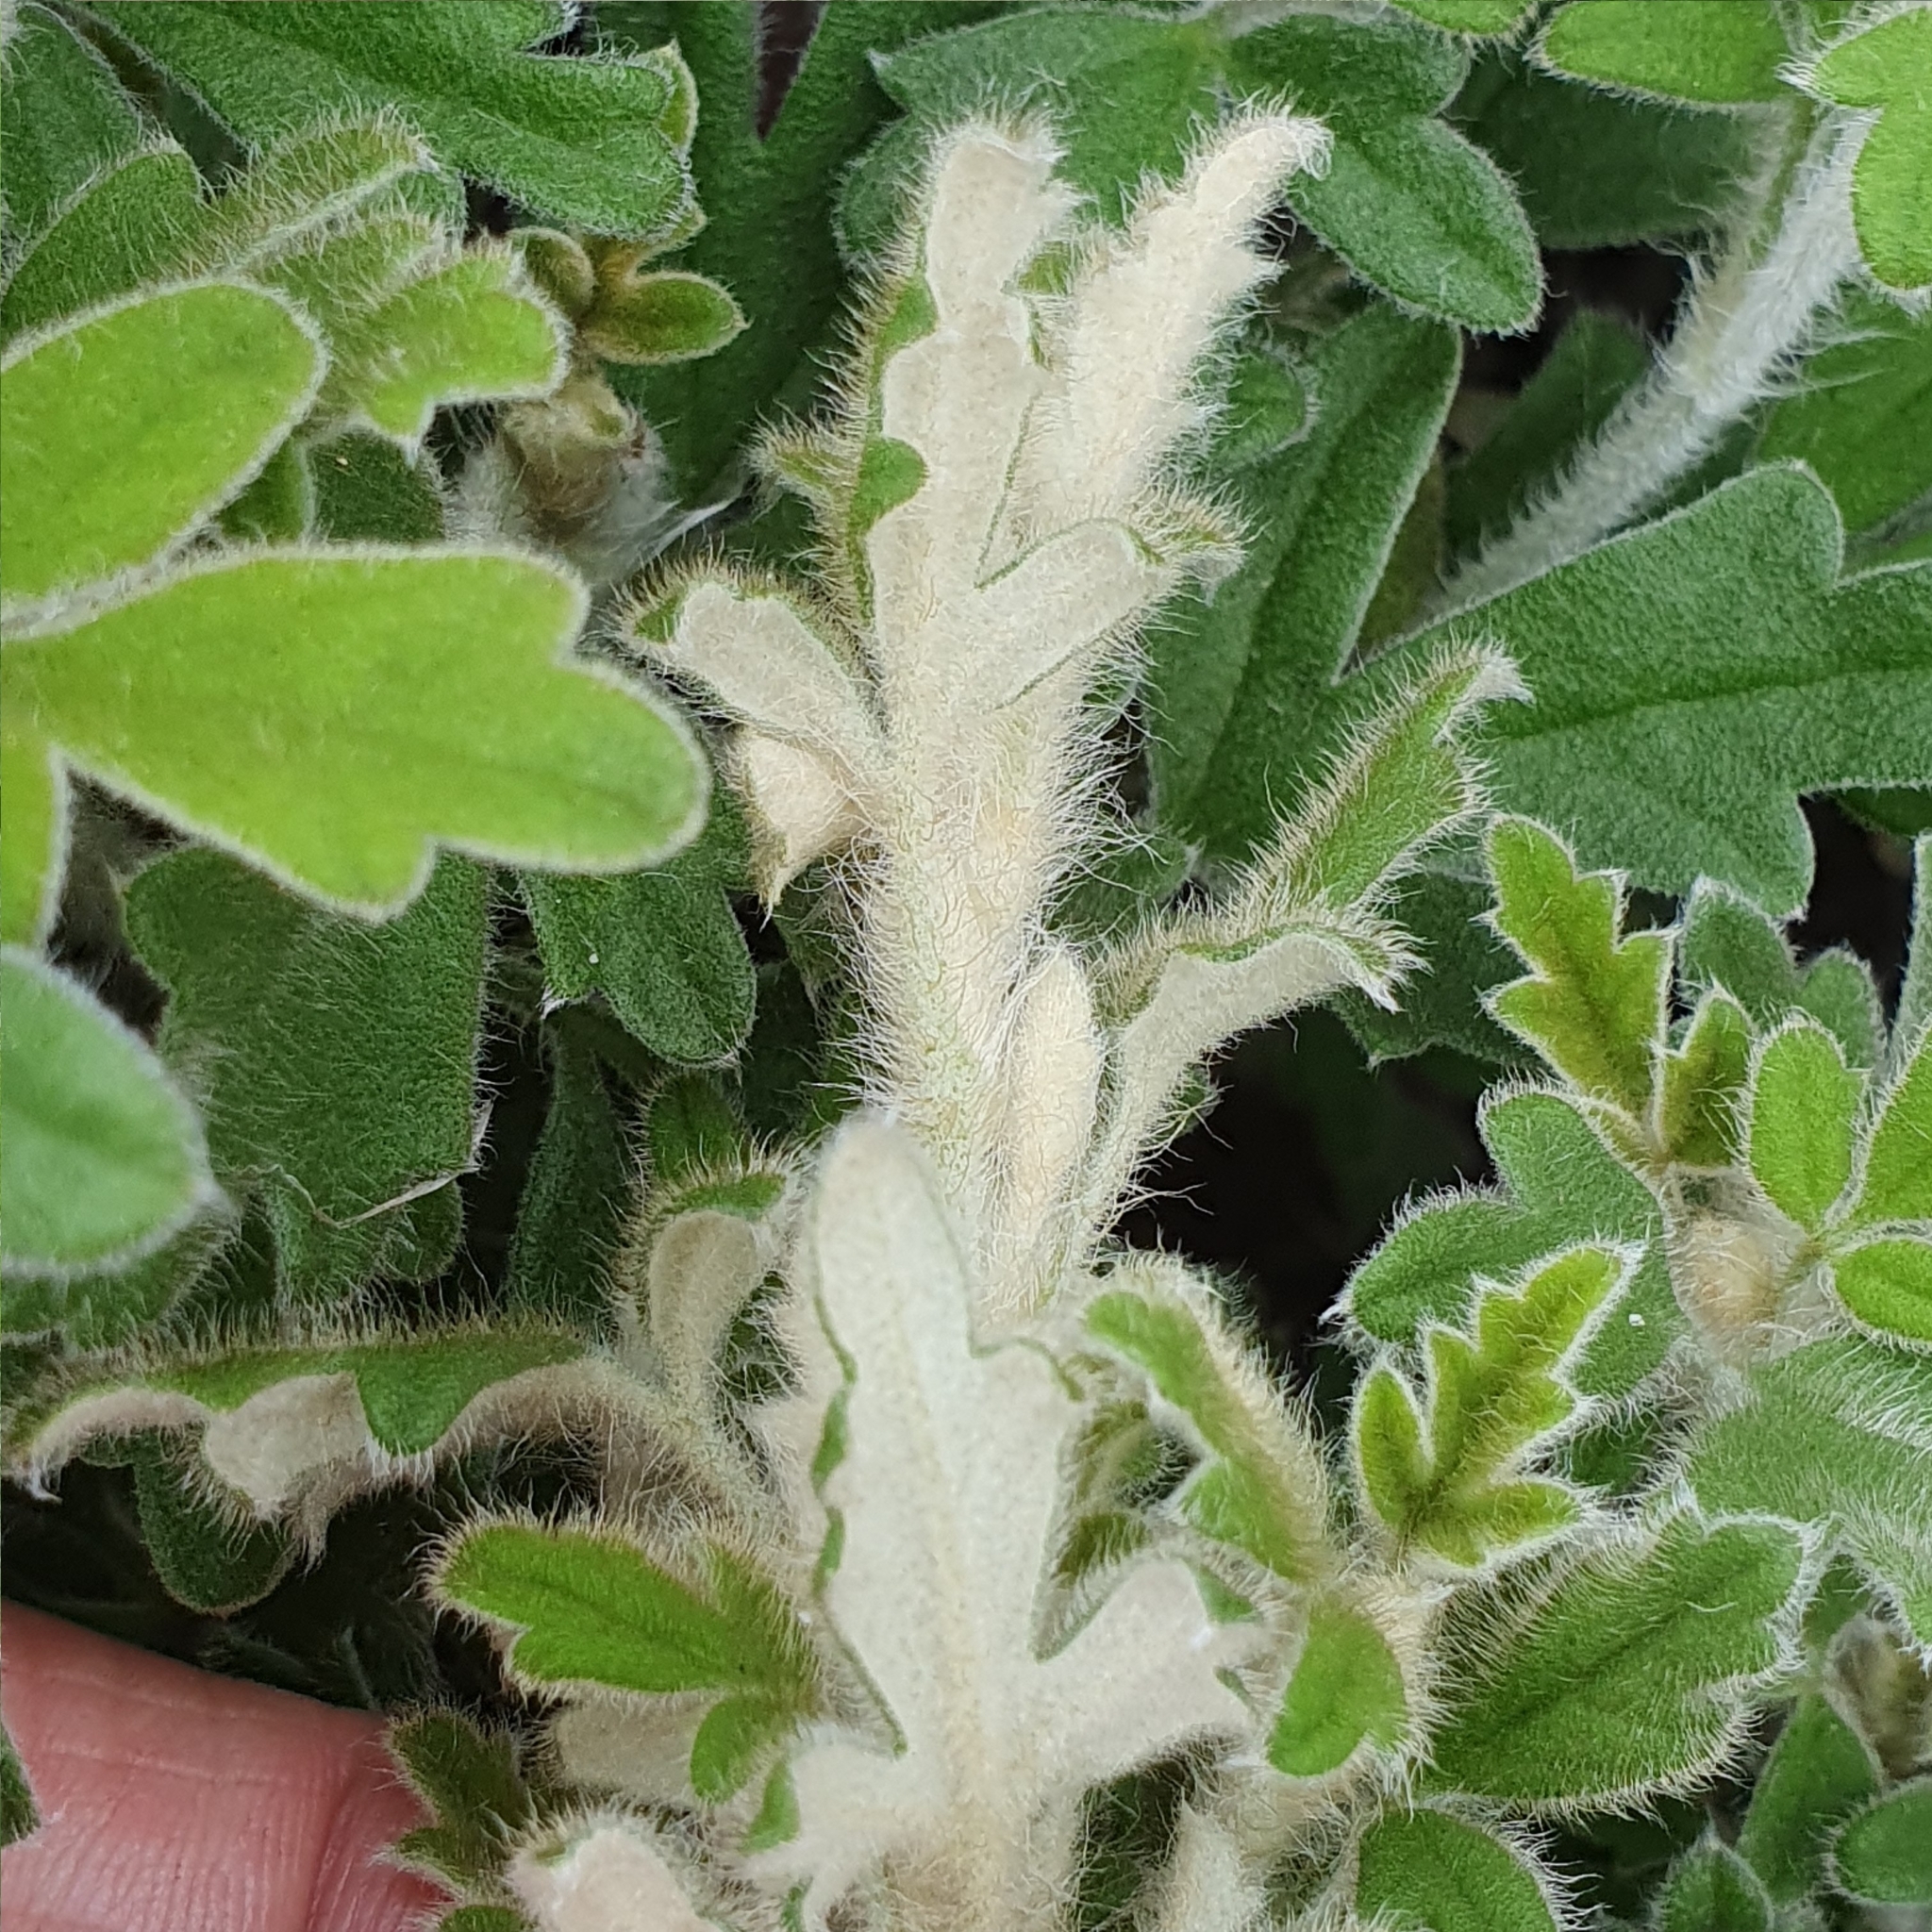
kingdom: Plantae
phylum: Tracheophyta
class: Magnoliopsida
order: Apiales
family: Apiaceae
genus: Xanthosia
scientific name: Xanthosia pilosa
